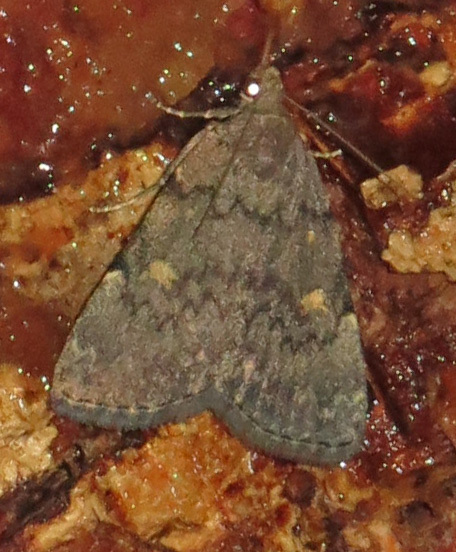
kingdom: Animalia
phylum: Arthropoda
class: Insecta
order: Lepidoptera
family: Erebidae
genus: Idia
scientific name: Idia aemula
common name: Common idia moth
